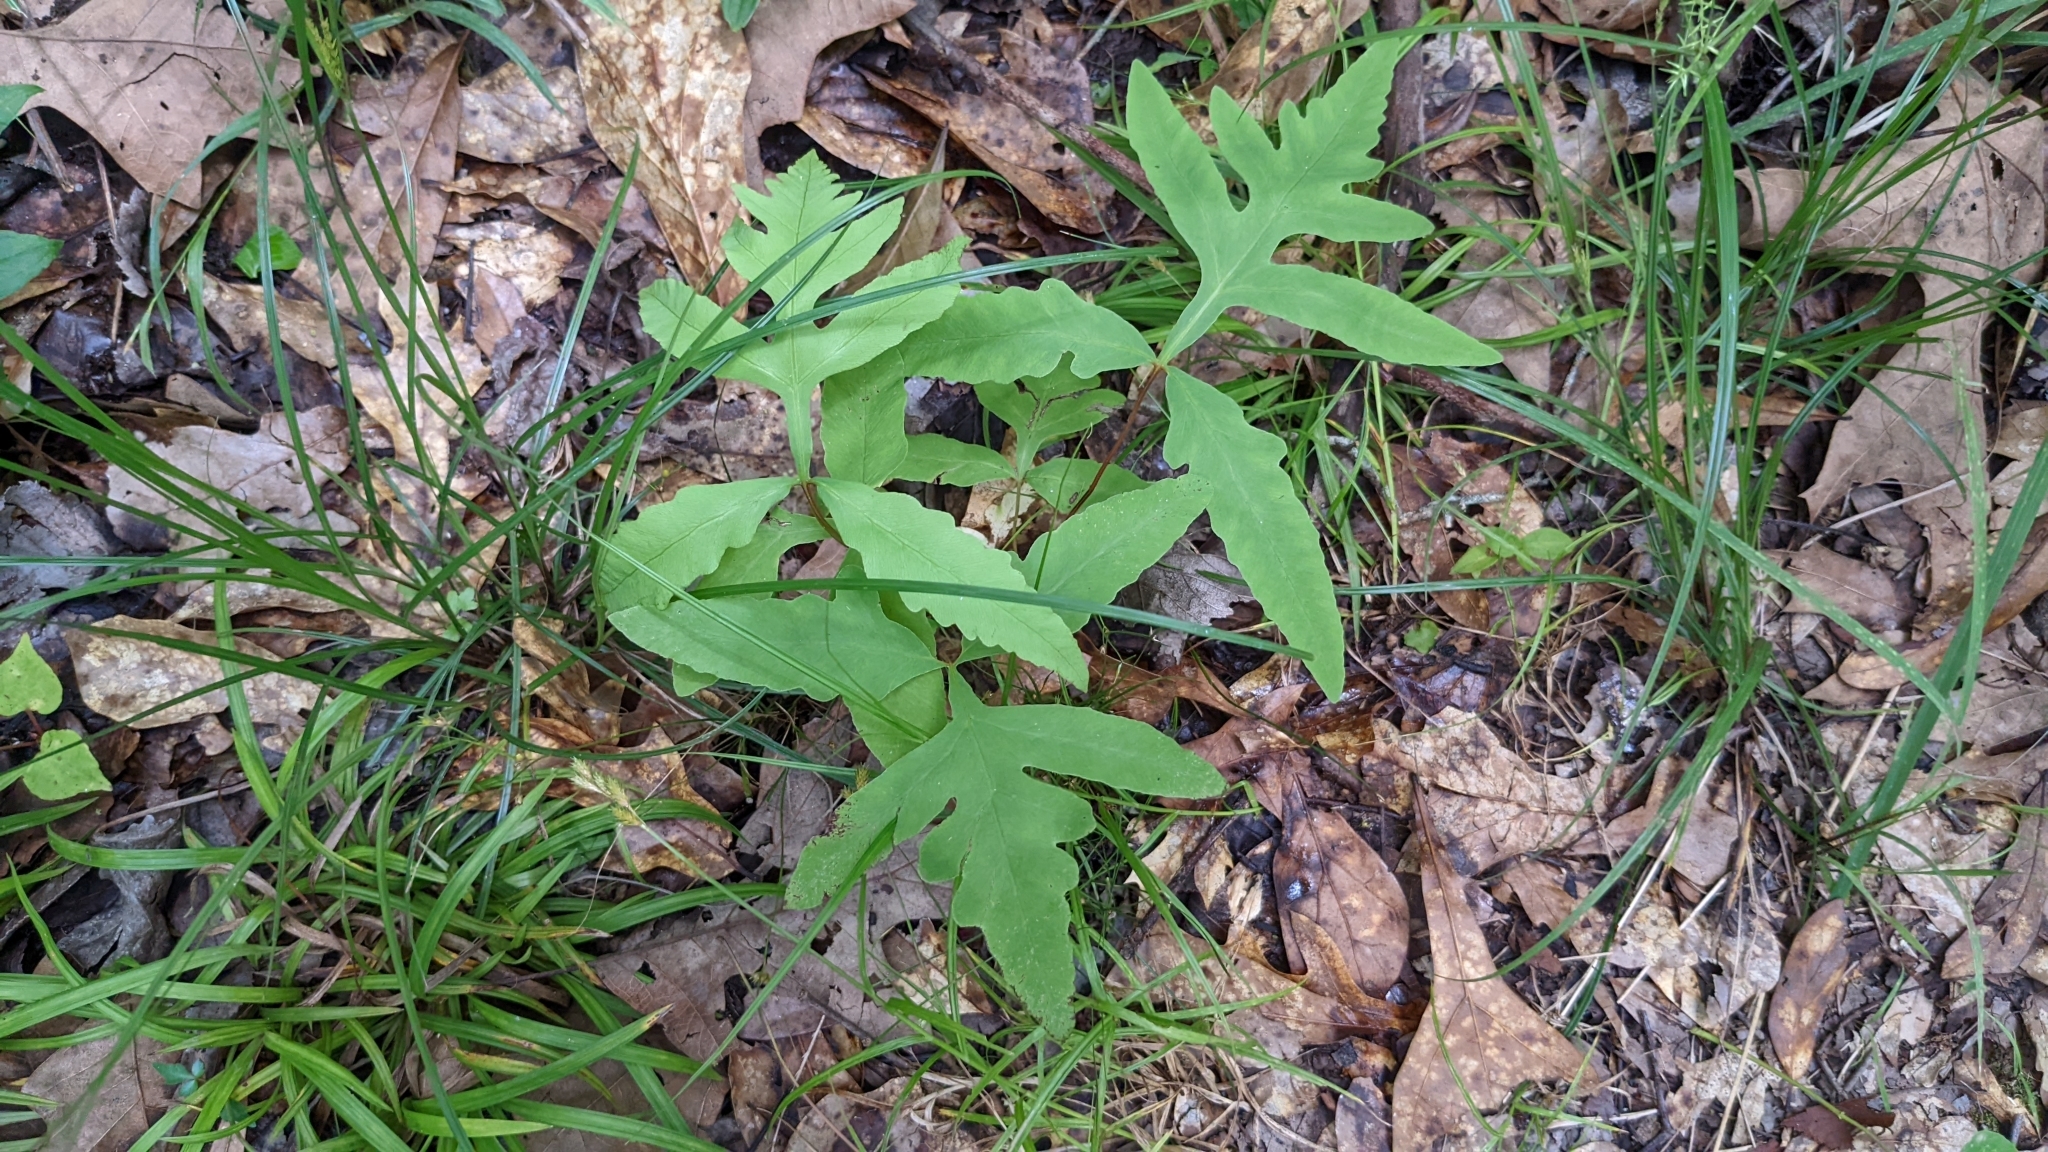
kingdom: Plantae
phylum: Tracheophyta
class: Polypodiopsida
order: Polypodiales
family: Onocleaceae
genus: Onoclea
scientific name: Onoclea sensibilis
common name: Sensitive fern
